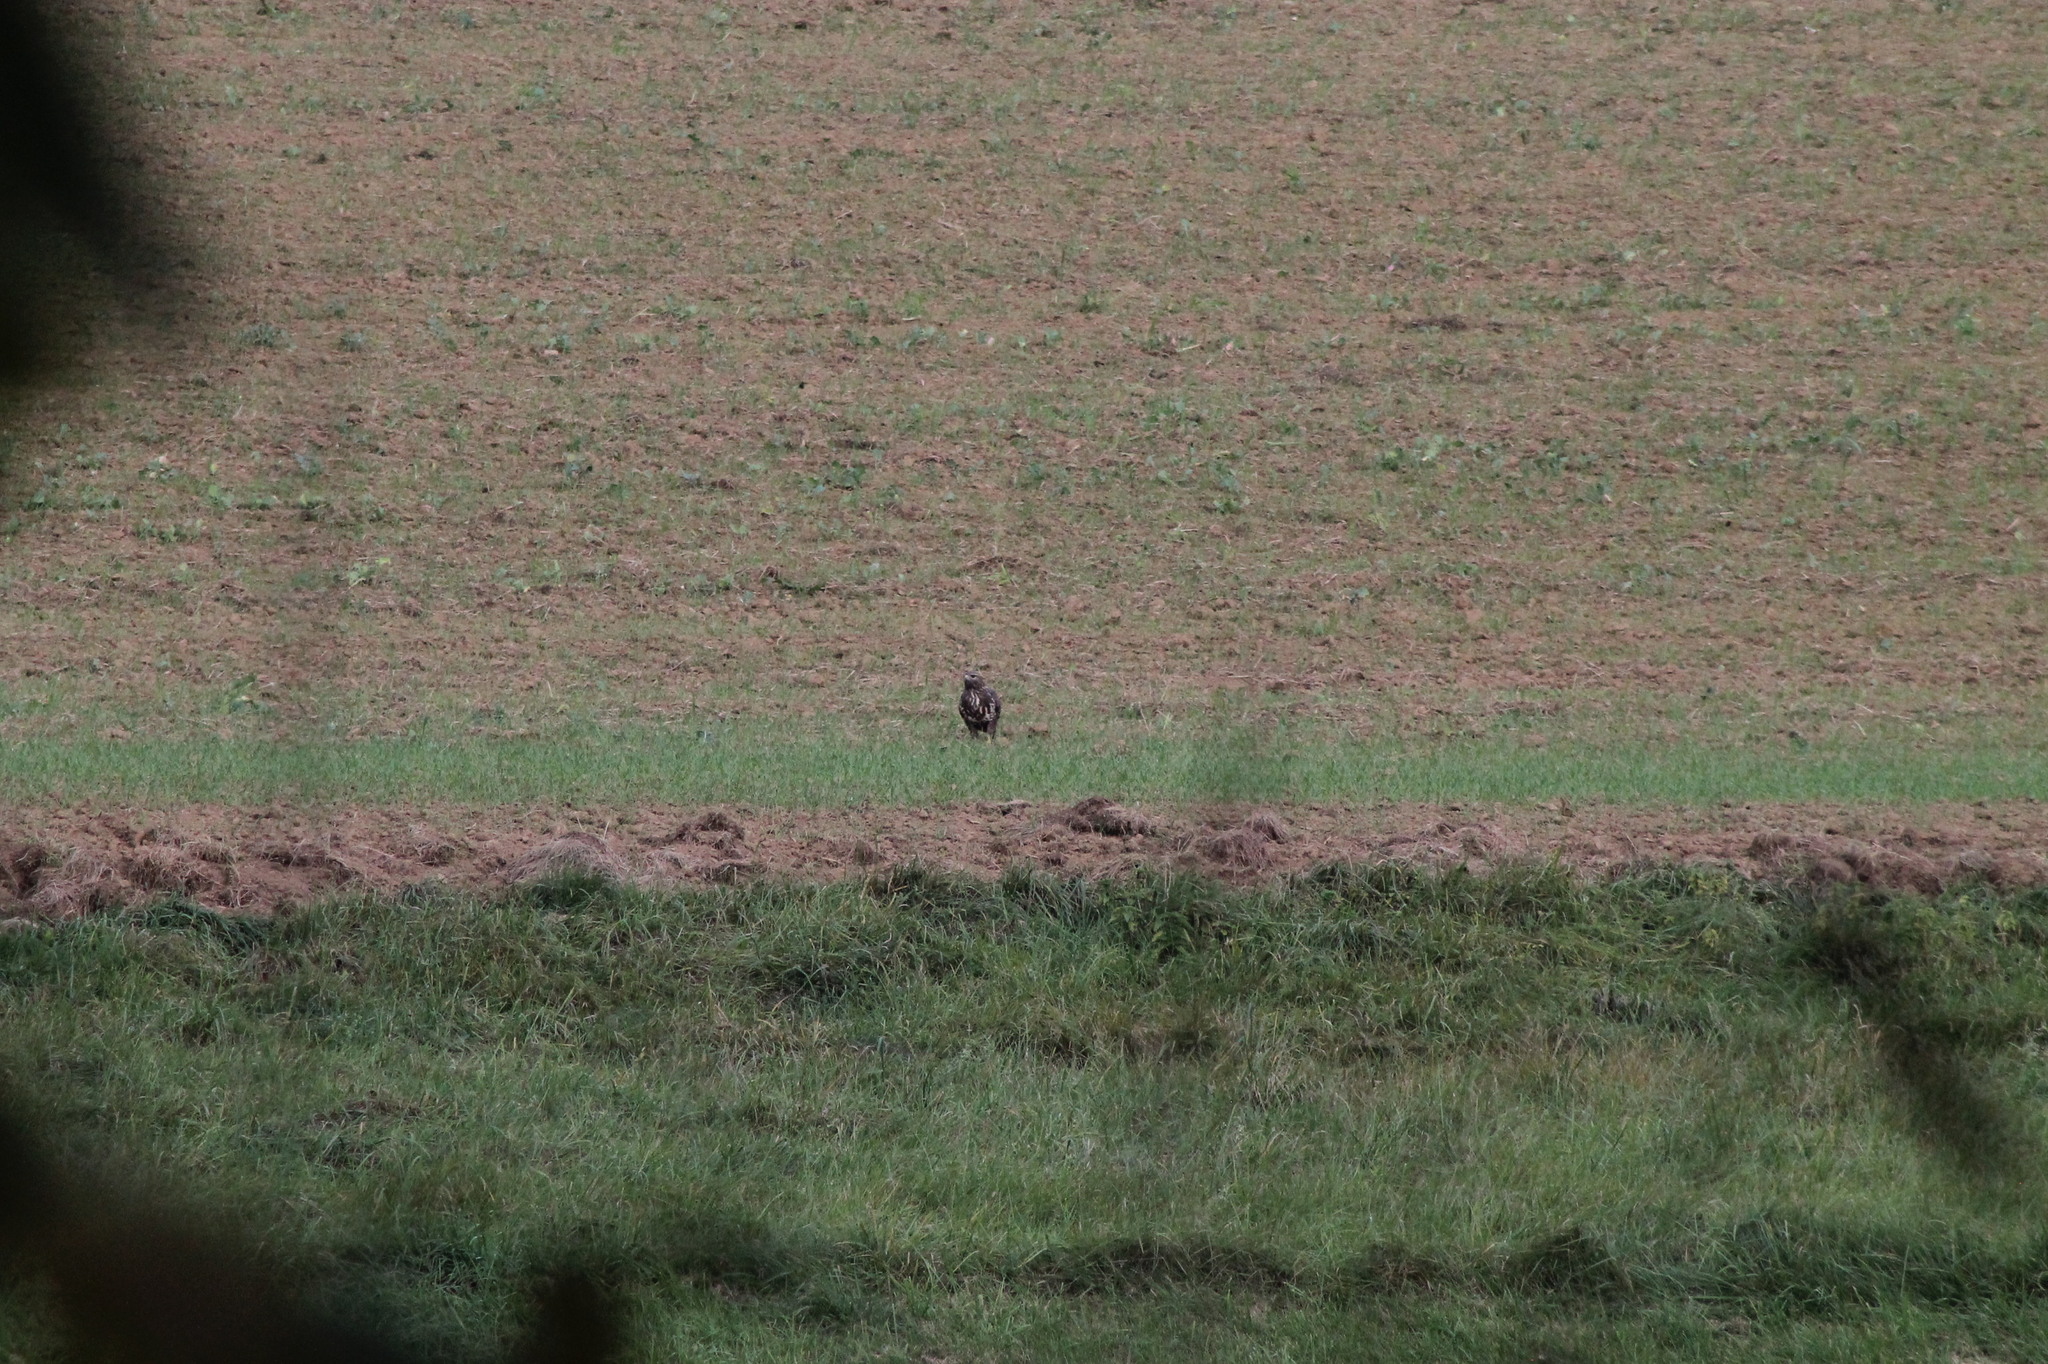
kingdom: Animalia
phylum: Chordata
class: Aves
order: Accipitriformes
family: Accipitridae
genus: Buteo
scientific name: Buteo buteo
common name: Common buzzard
